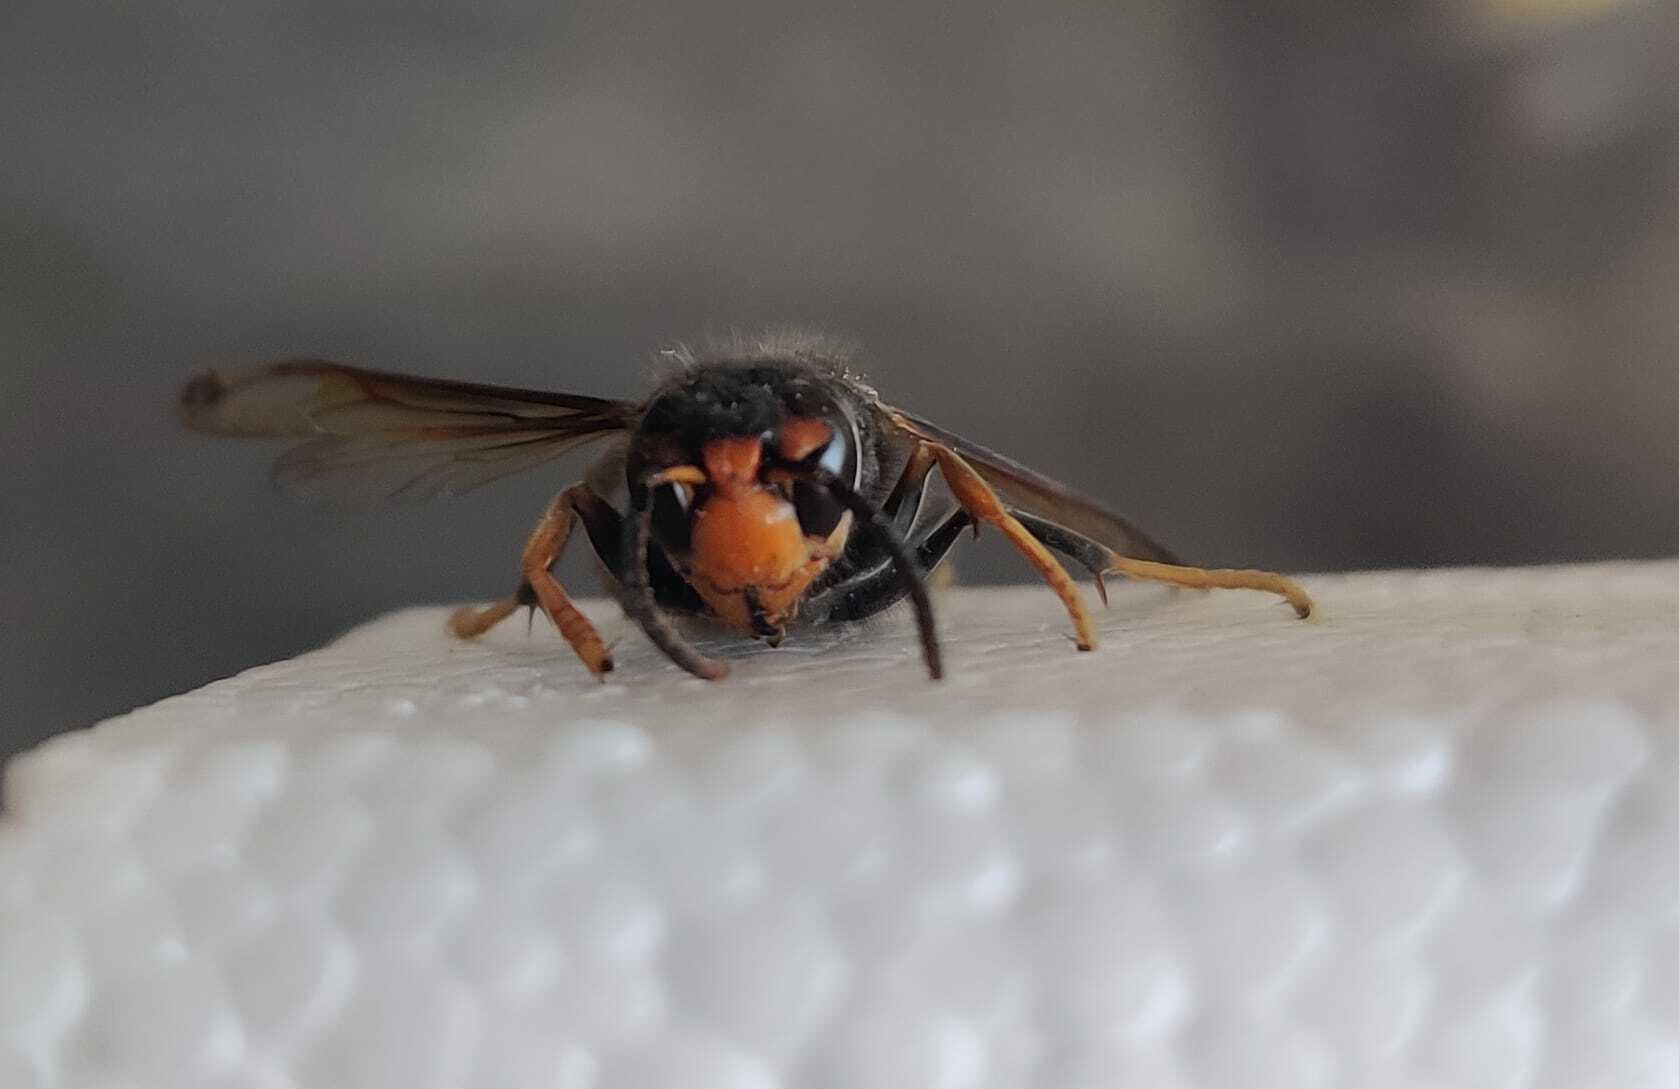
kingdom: Animalia
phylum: Arthropoda
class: Insecta
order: Hymenoptera
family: Vespidae
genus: Vespa
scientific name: Vespa velutina
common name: Asian hornet
